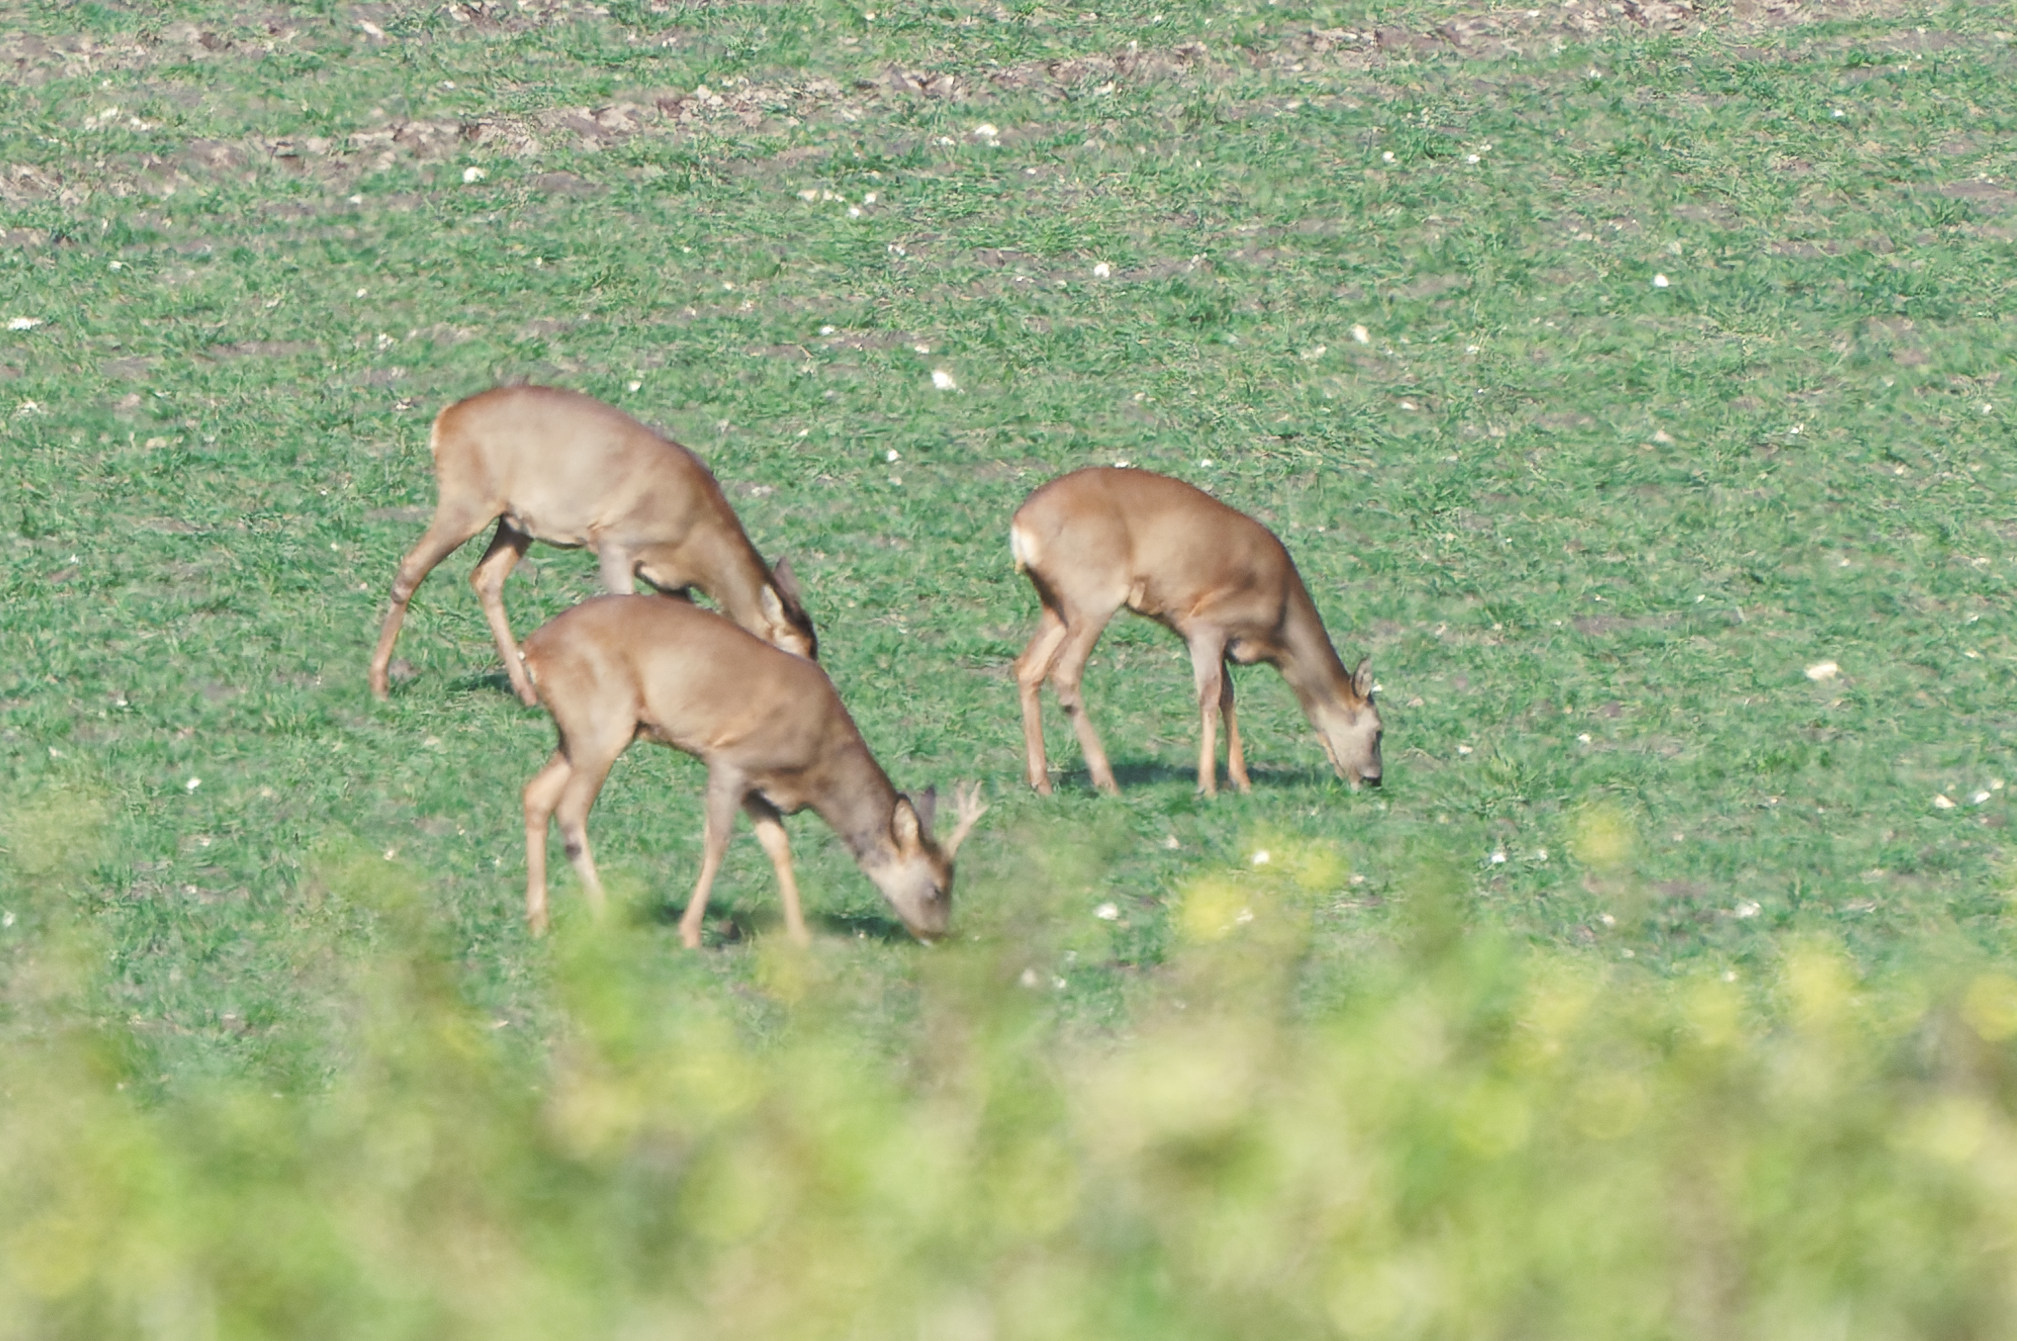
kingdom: Animalia
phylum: Chordata
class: Mammalia
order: Artiodactyla
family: Cervidae
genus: Capreolus
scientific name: Capreolus capreolus
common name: Western roe deer
